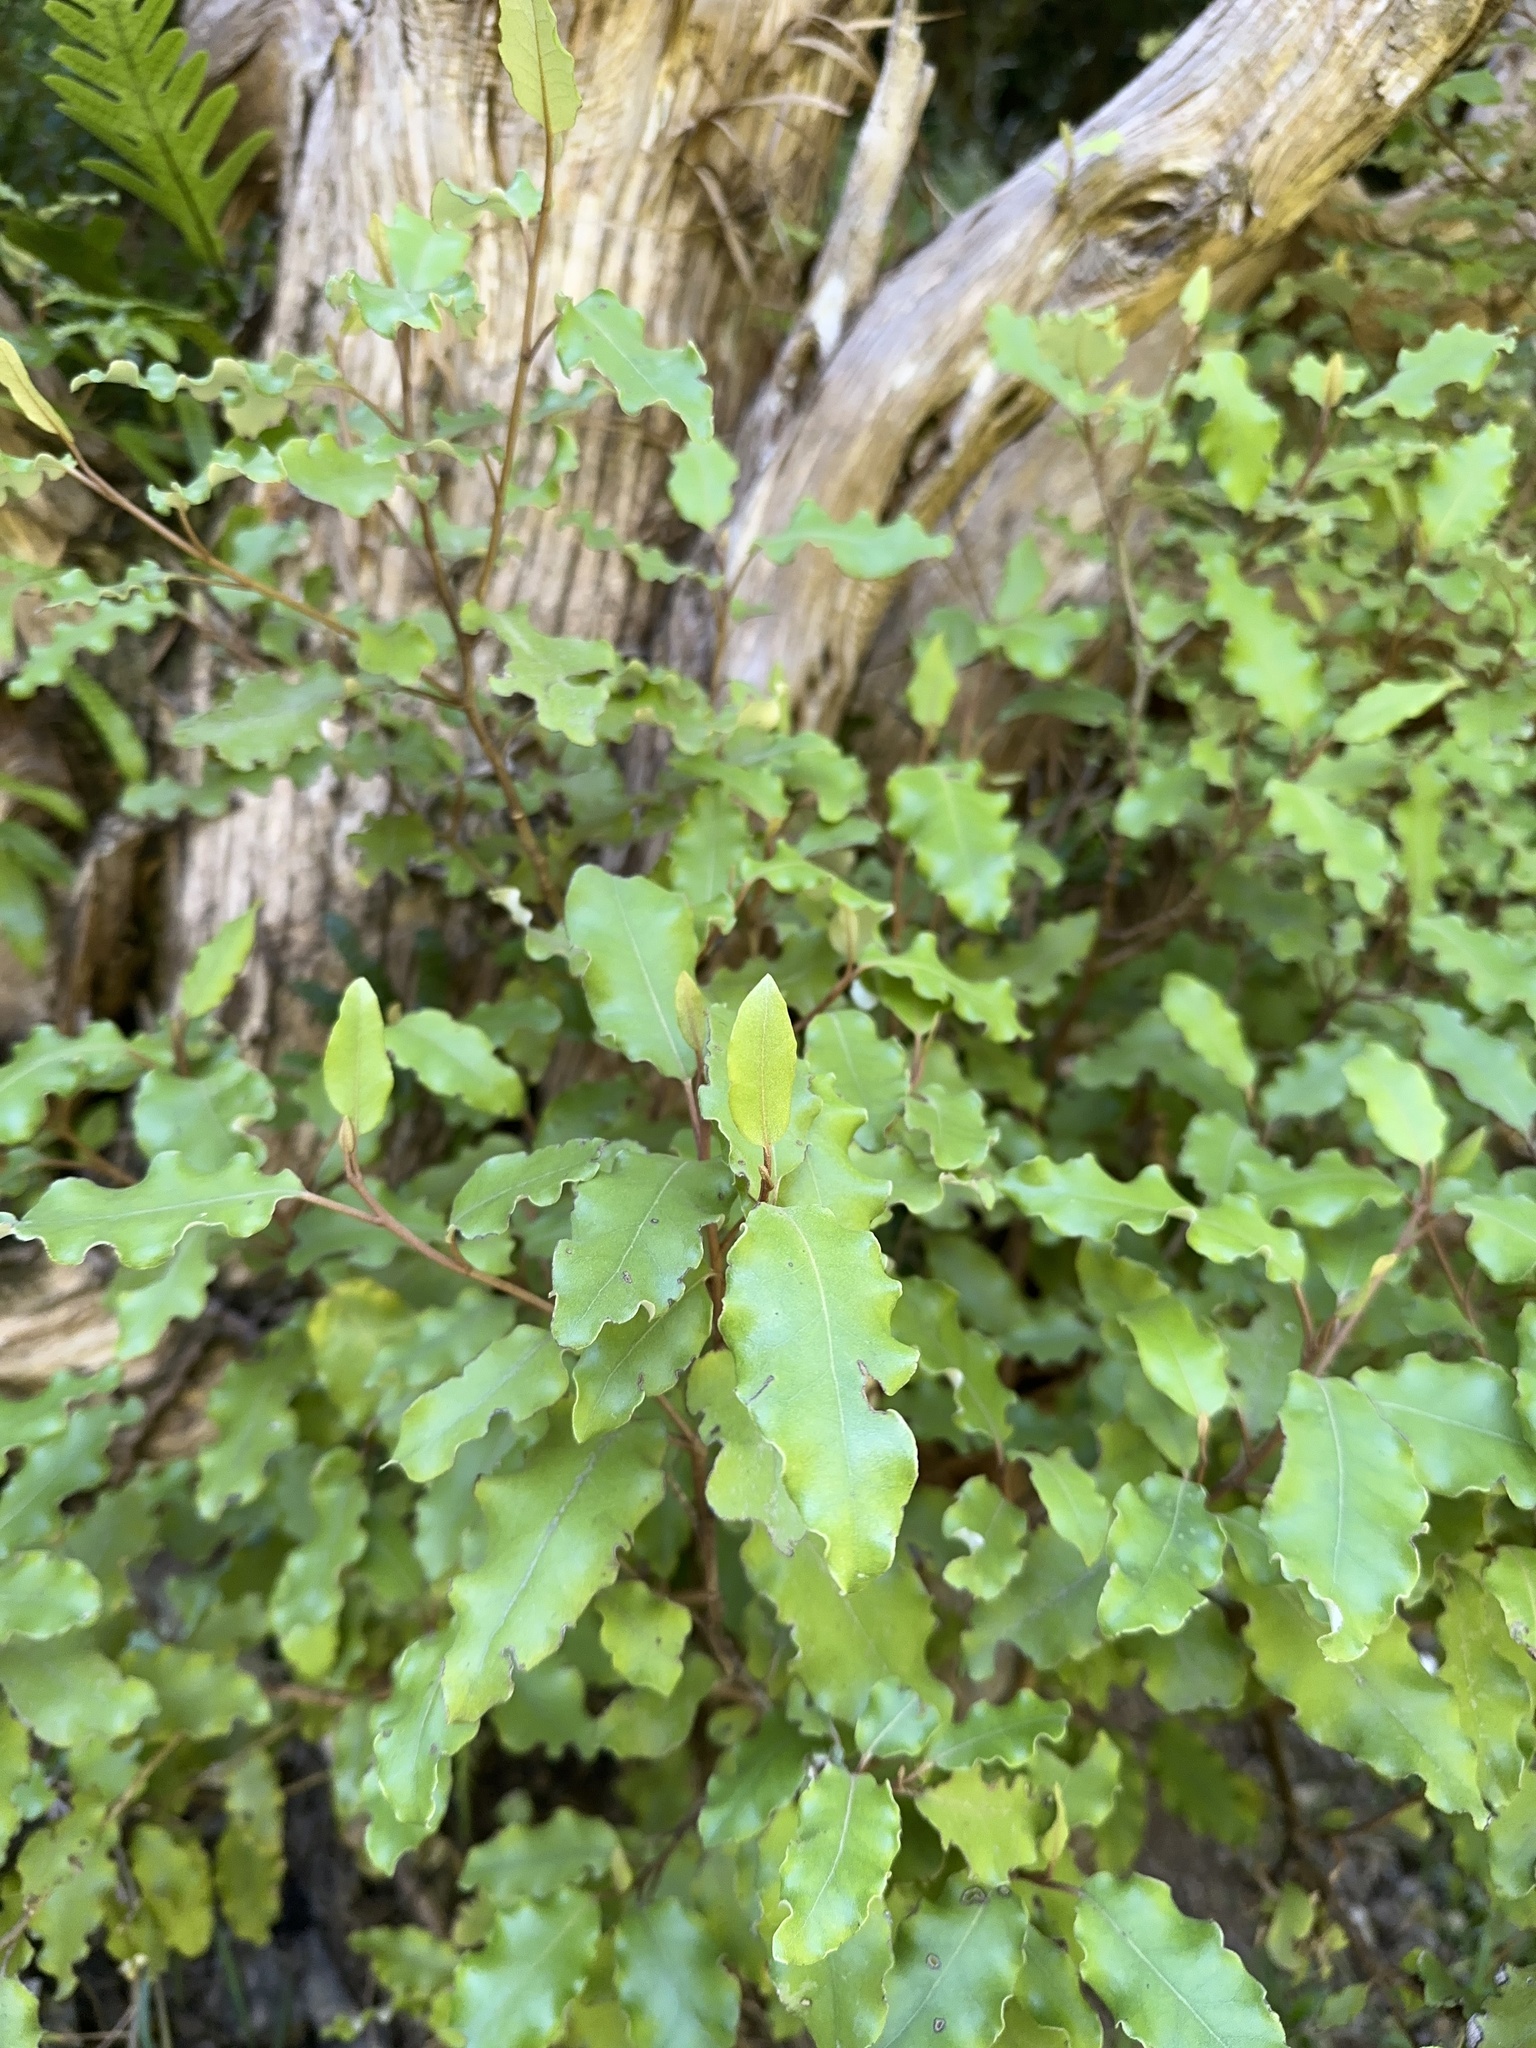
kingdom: Plantae
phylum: Tracheophyta
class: Magnoliopsida
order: Asterales
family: Asteraceae
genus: Olearia
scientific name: Olearia paniculata
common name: Akiraho
